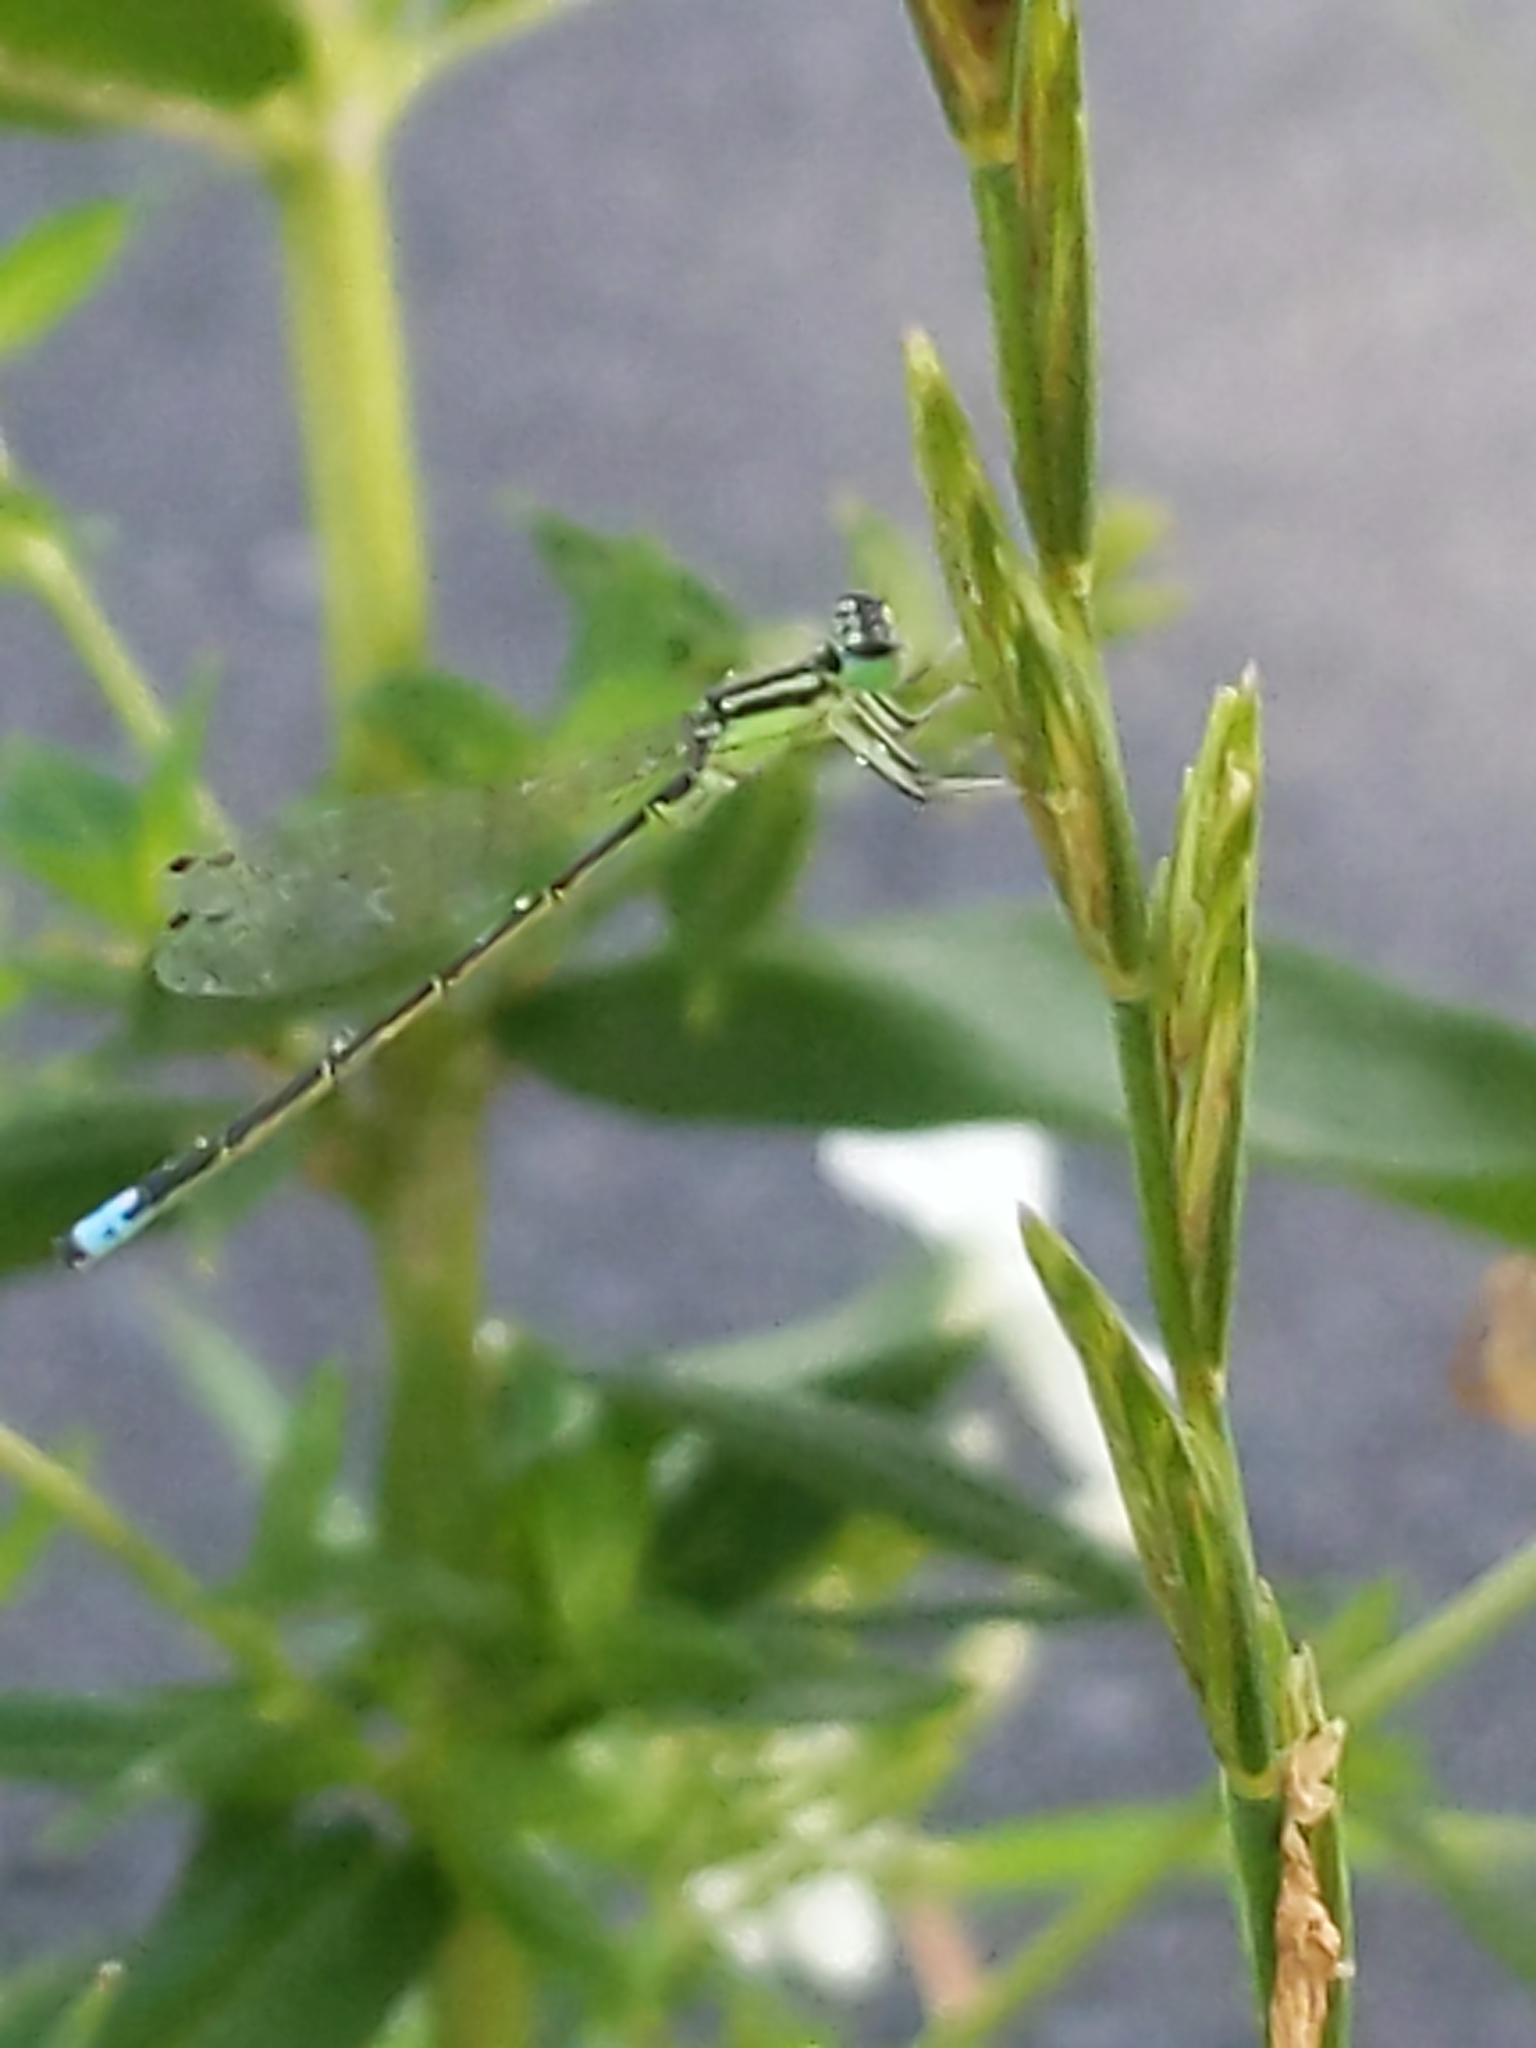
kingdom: Animalia
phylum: Arthropoda
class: Insecta
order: Odonata
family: Coenagrionidae
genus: Ischnura
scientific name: Ischnura verticalis
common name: Eastern forktail
